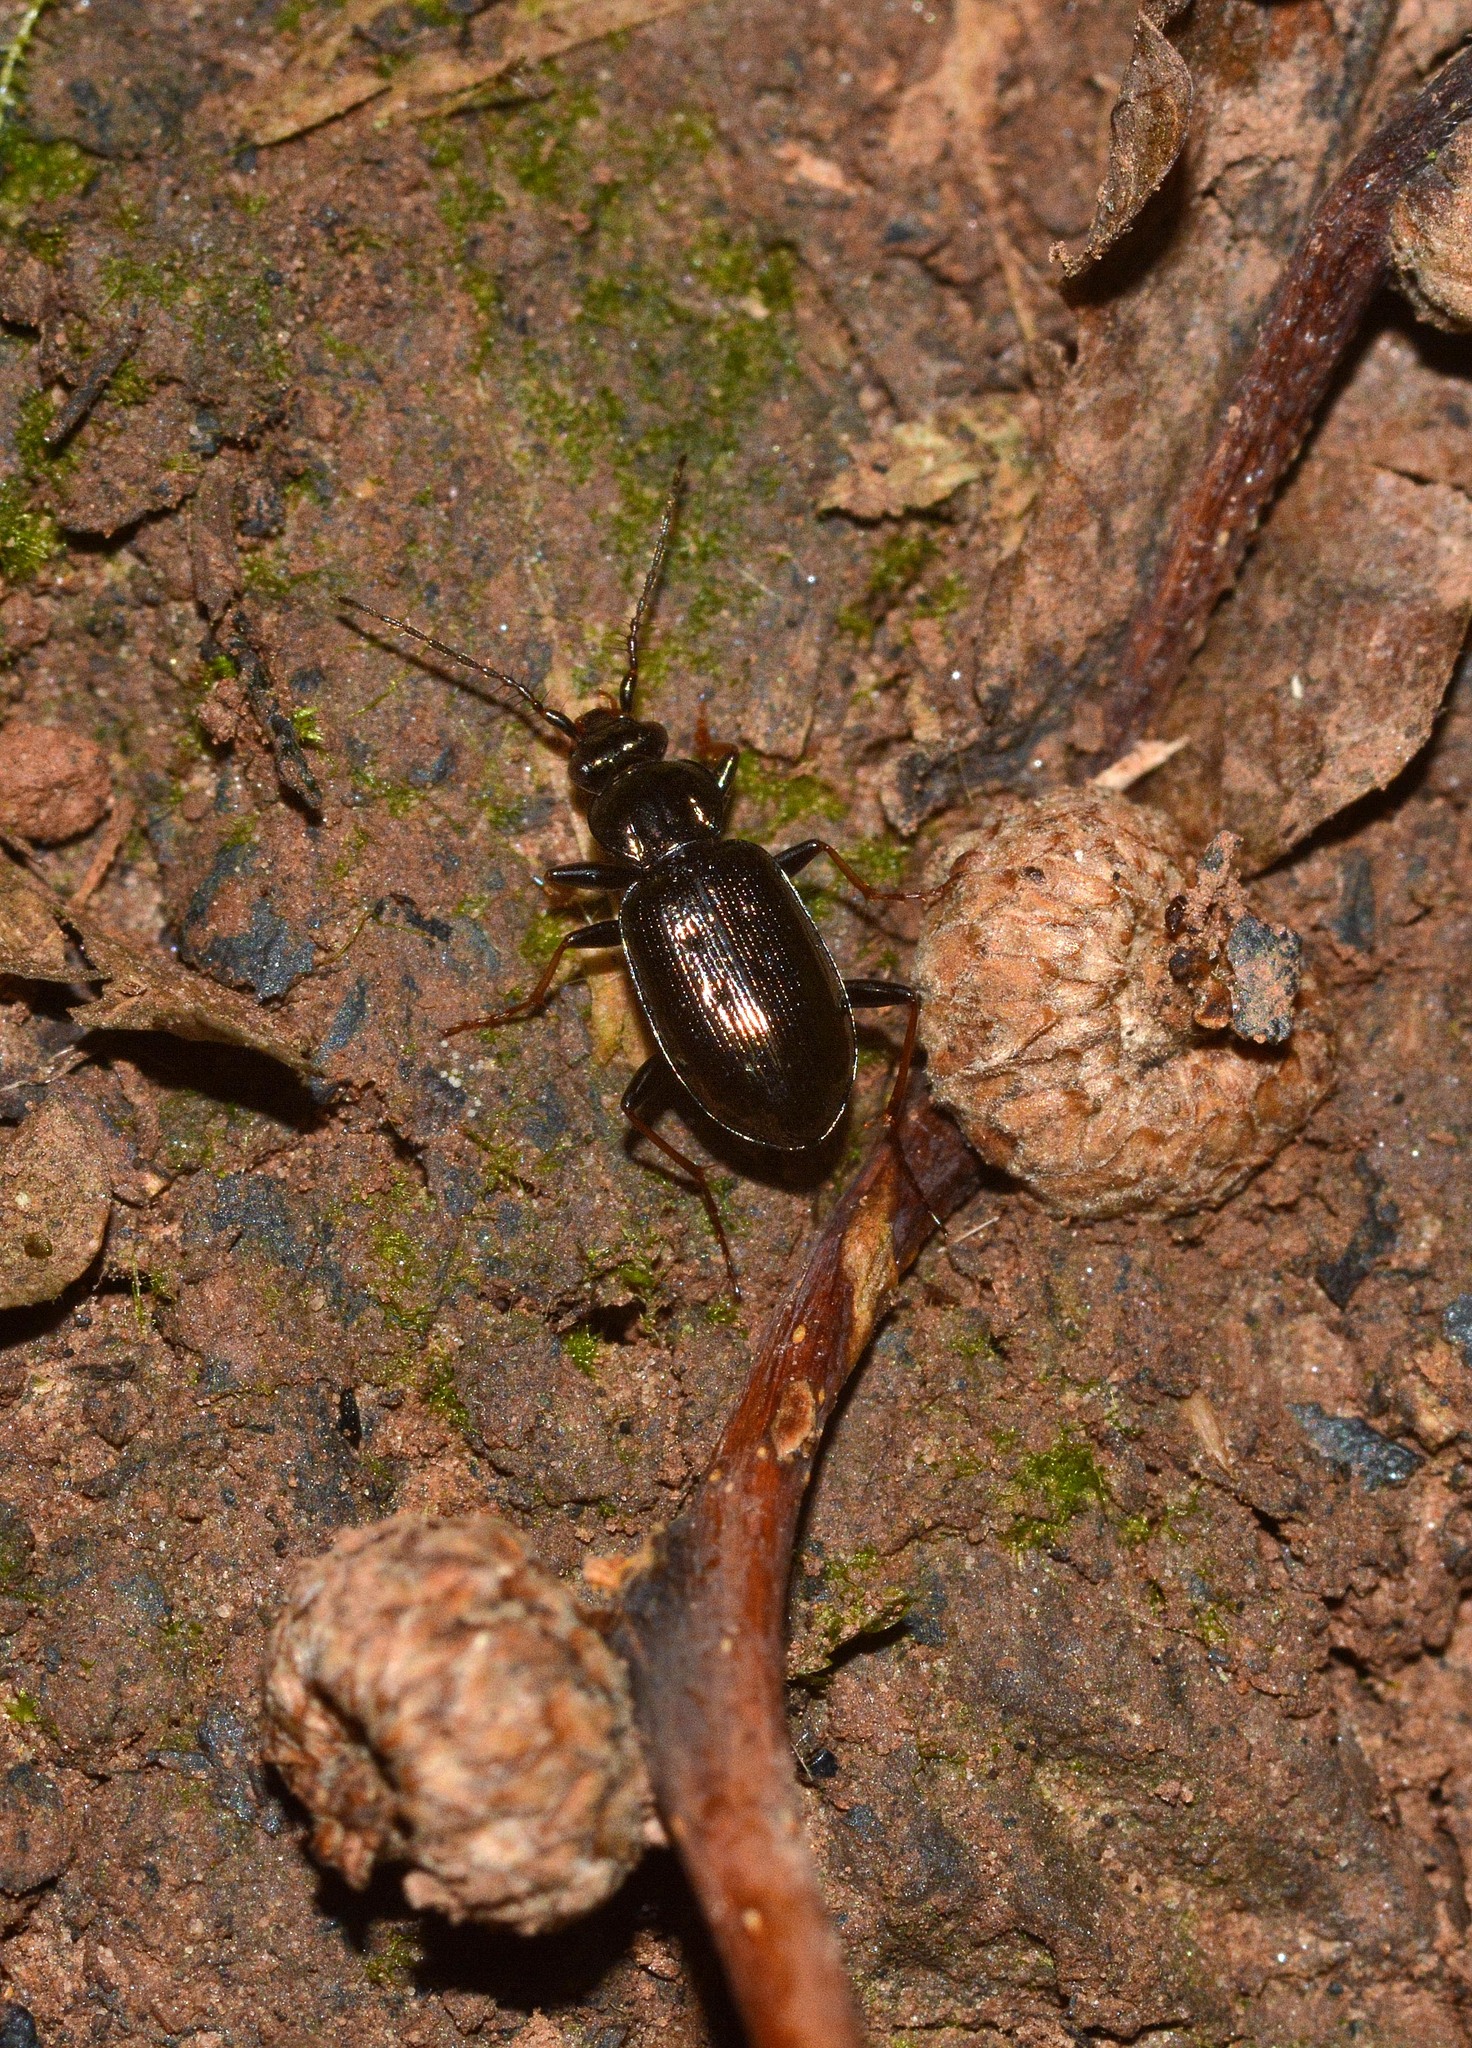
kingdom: Animalia
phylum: Arthropoda
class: Insecta
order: Coleoptera
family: Carabidae
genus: Loricera
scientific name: Loricera pilicornis
